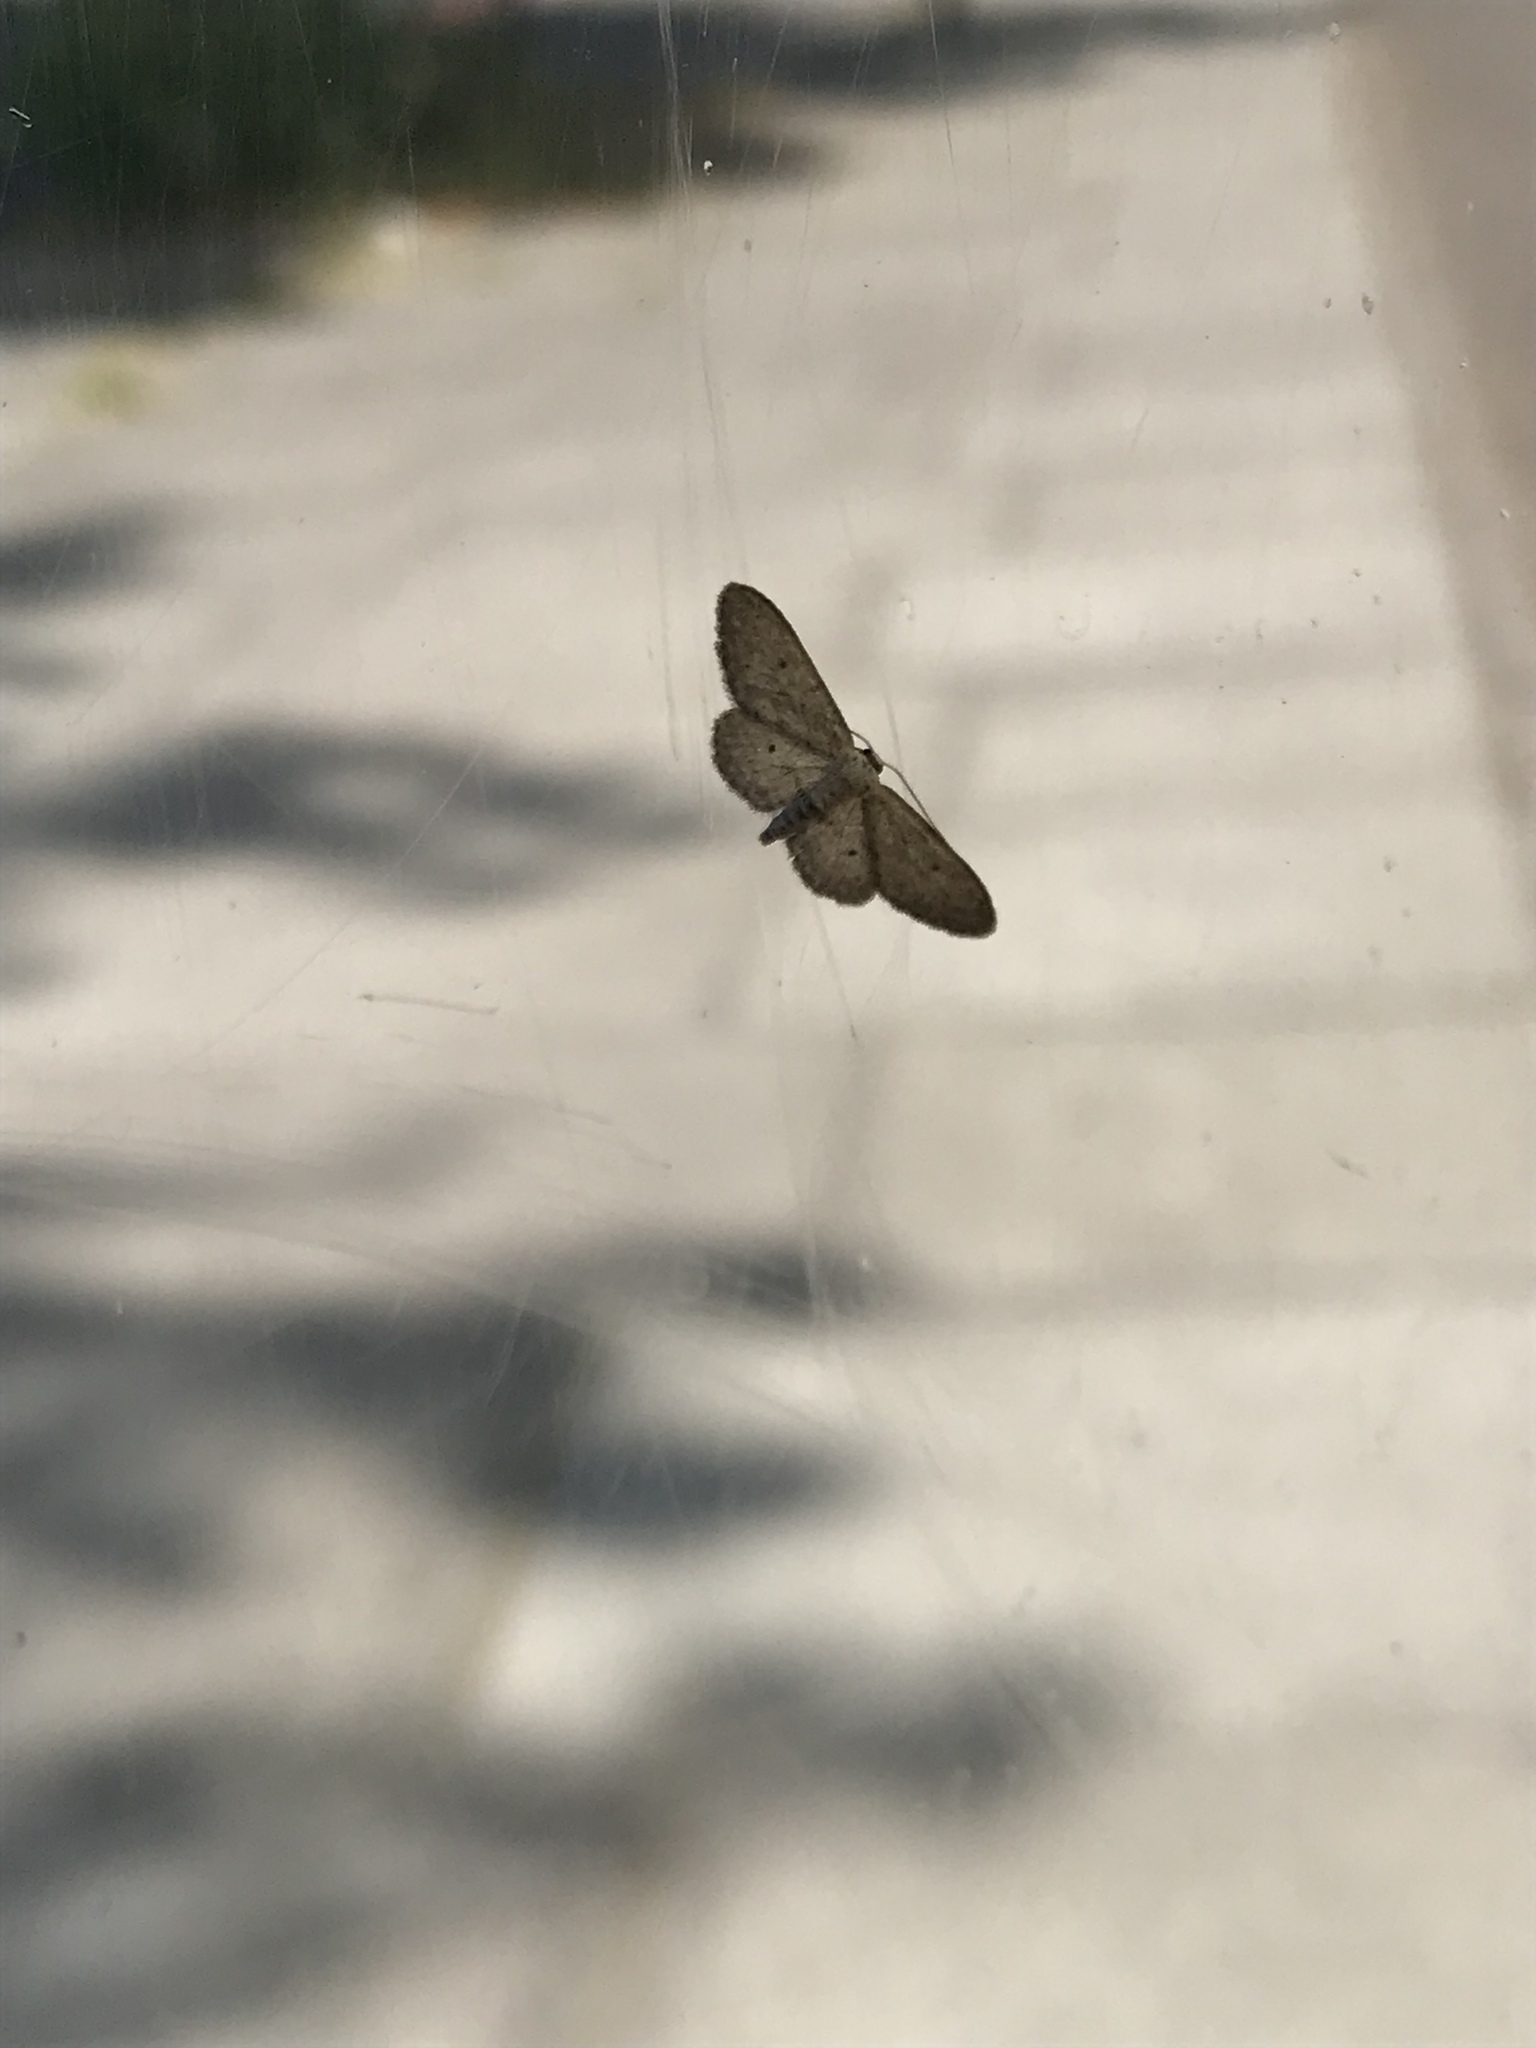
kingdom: Animalia
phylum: Arthropoda
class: Insecta
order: Lepidoptera
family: Geometridae
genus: Idaea
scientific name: Idaea seriata
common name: Small dusty wave
